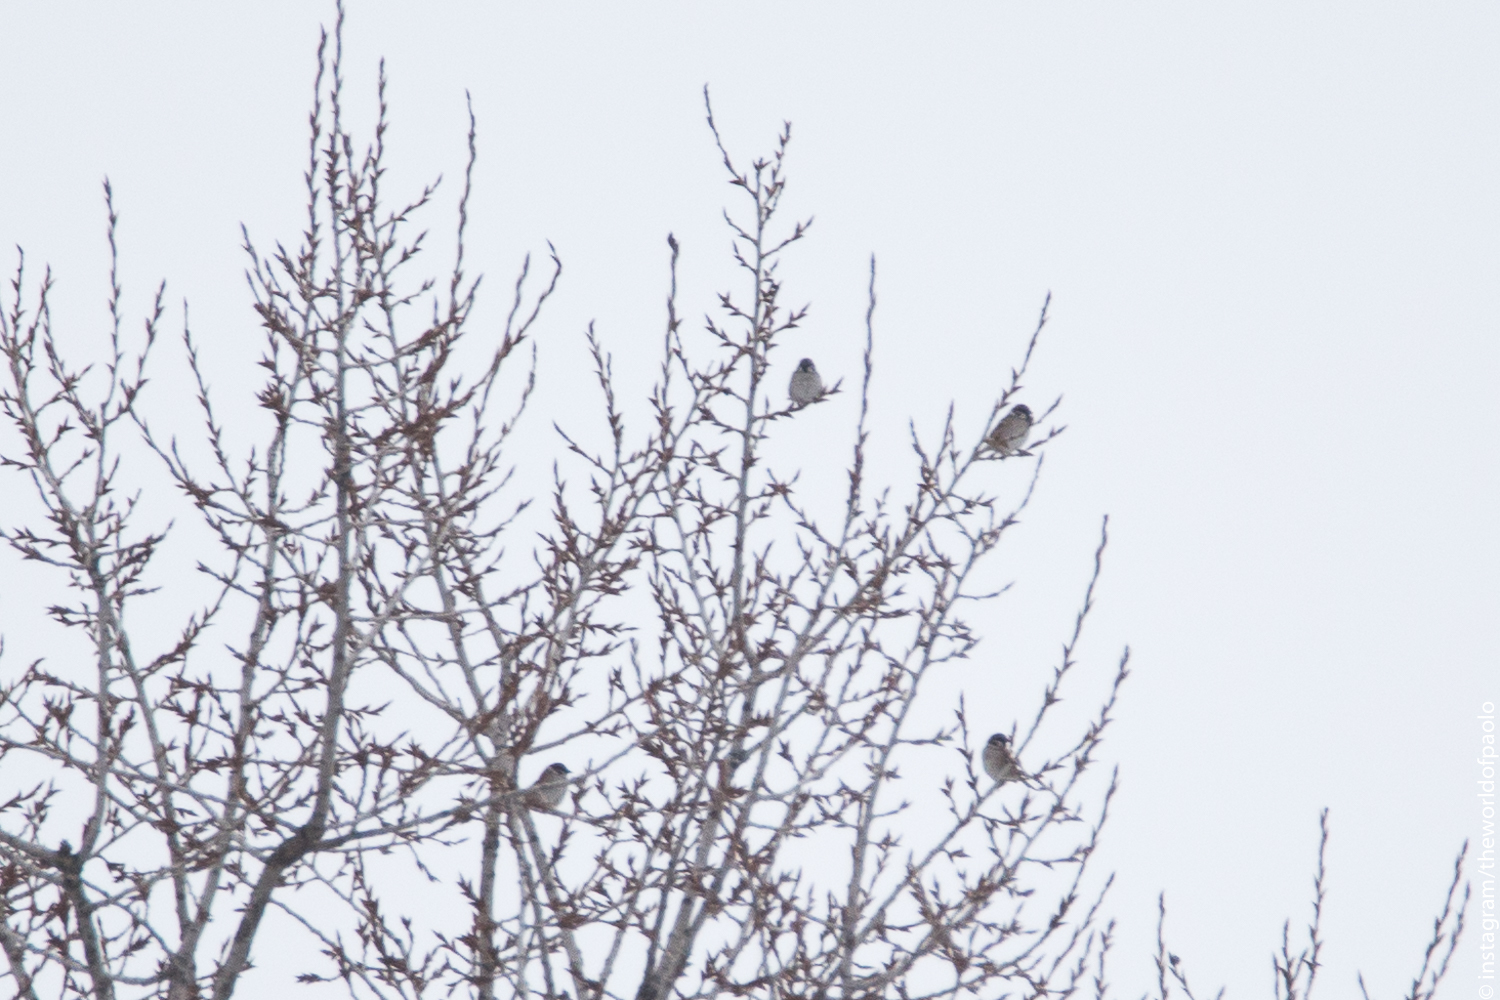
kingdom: Animalia
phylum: Chordata
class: Aves
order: Passeriformes
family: Passeridae
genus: Passer
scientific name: Passer montanus
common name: Eurasian tree sparrow
